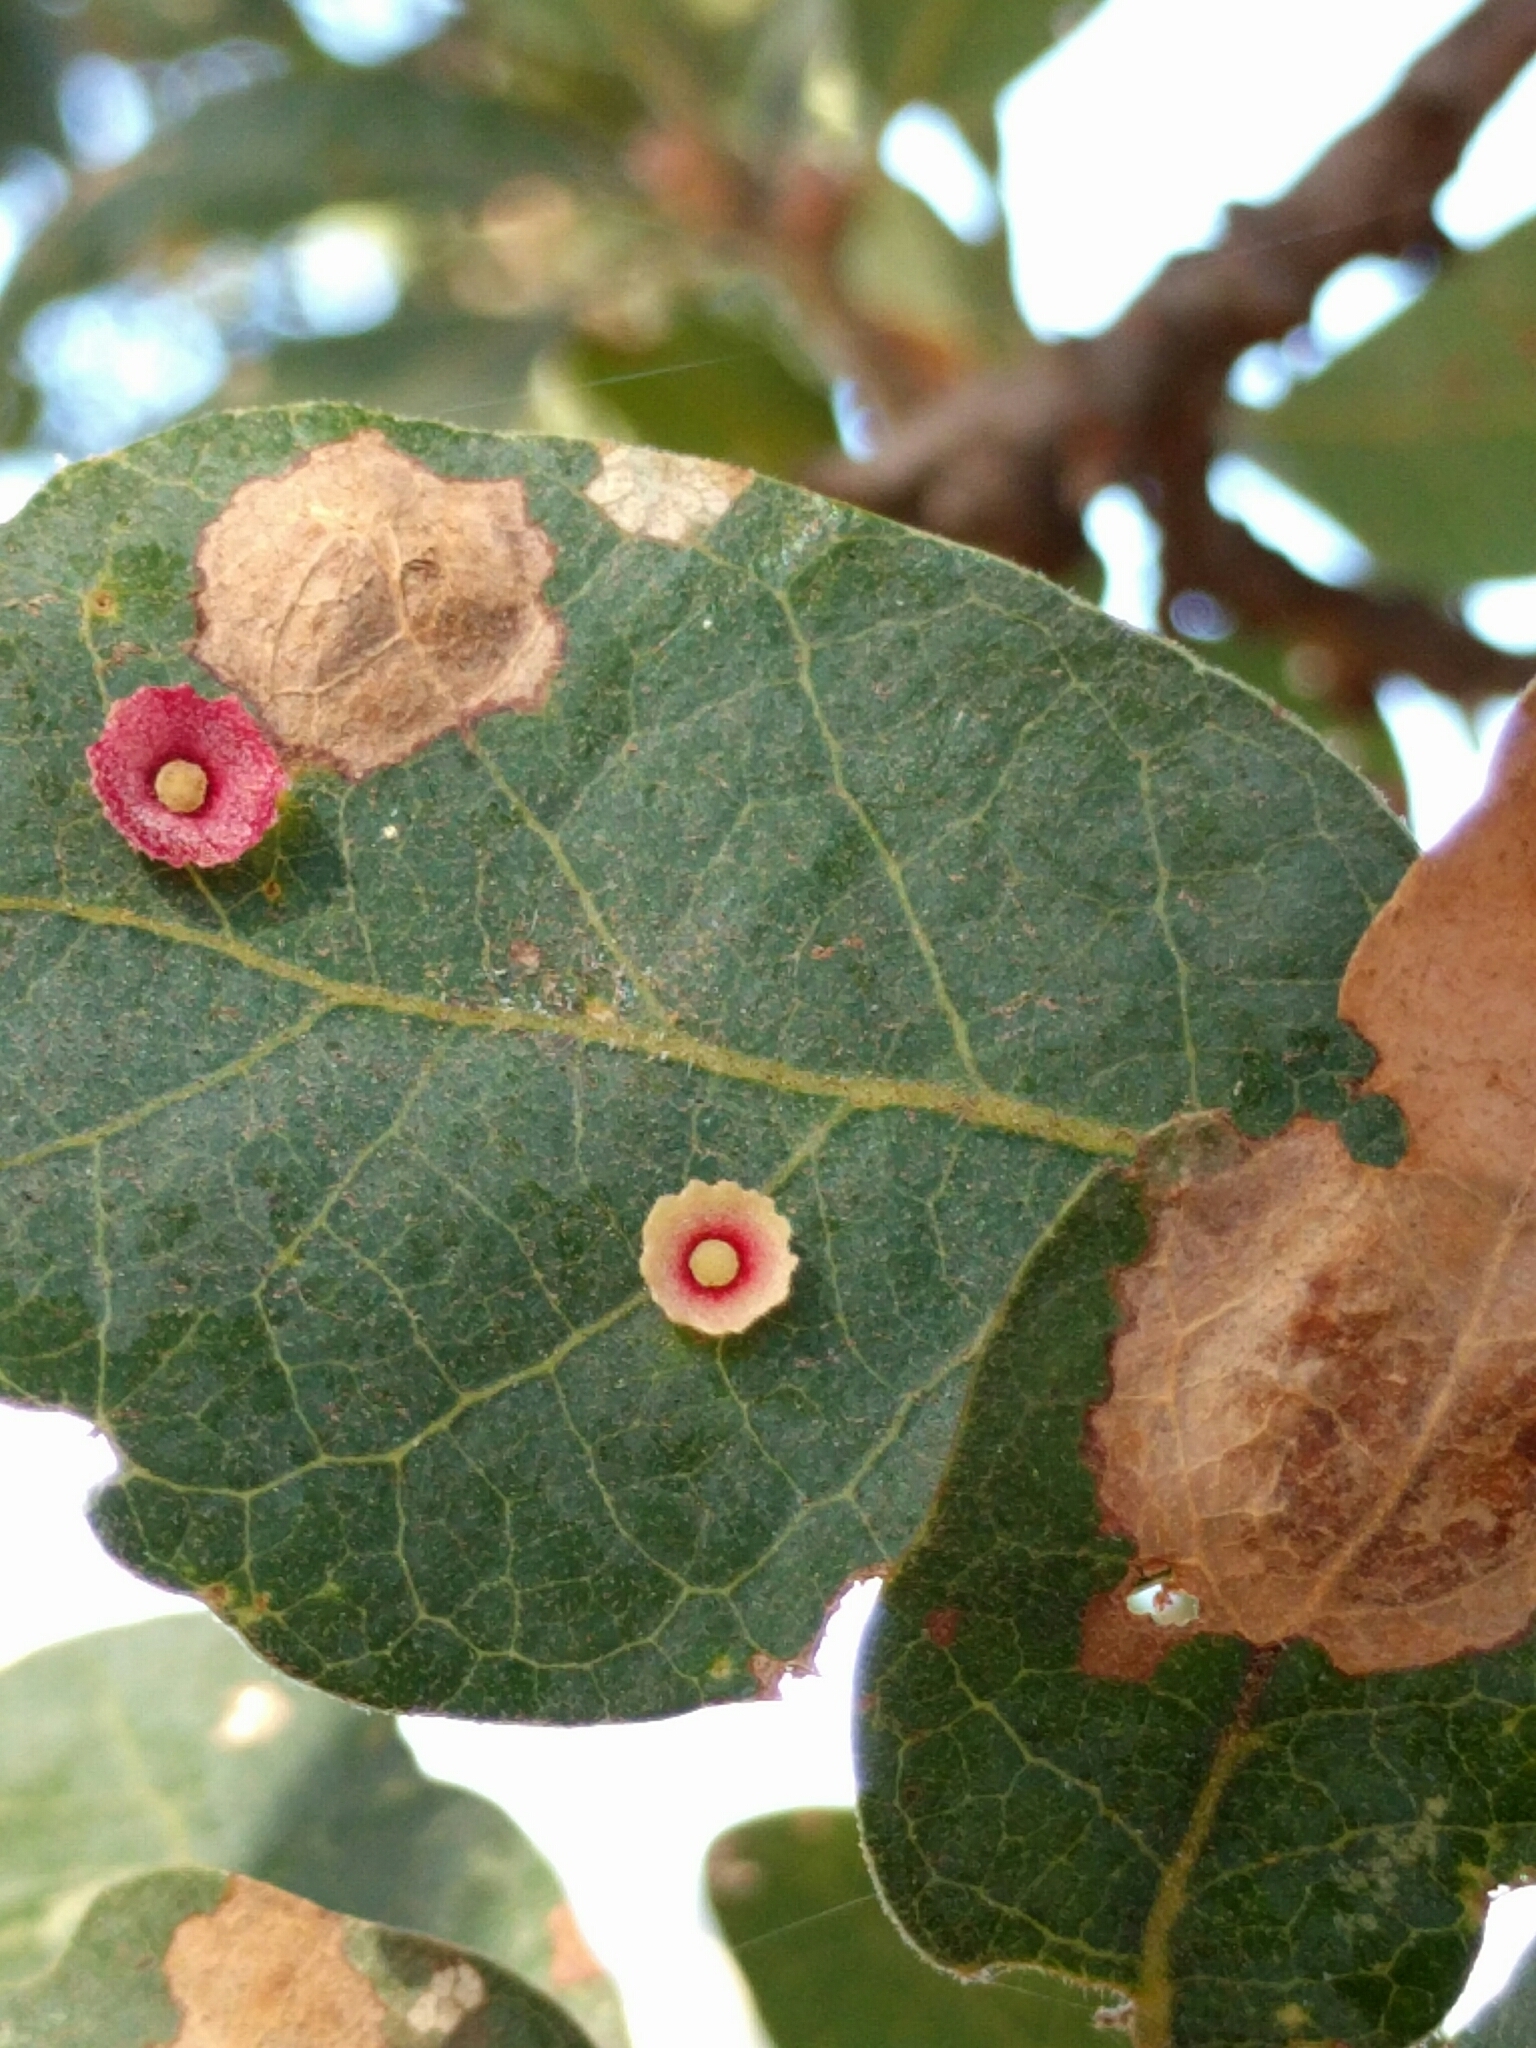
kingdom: Animalia
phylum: Arthropoda
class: Insecta
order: Hymenoptera
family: Cynipidae
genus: Andricus
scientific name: Andricus
